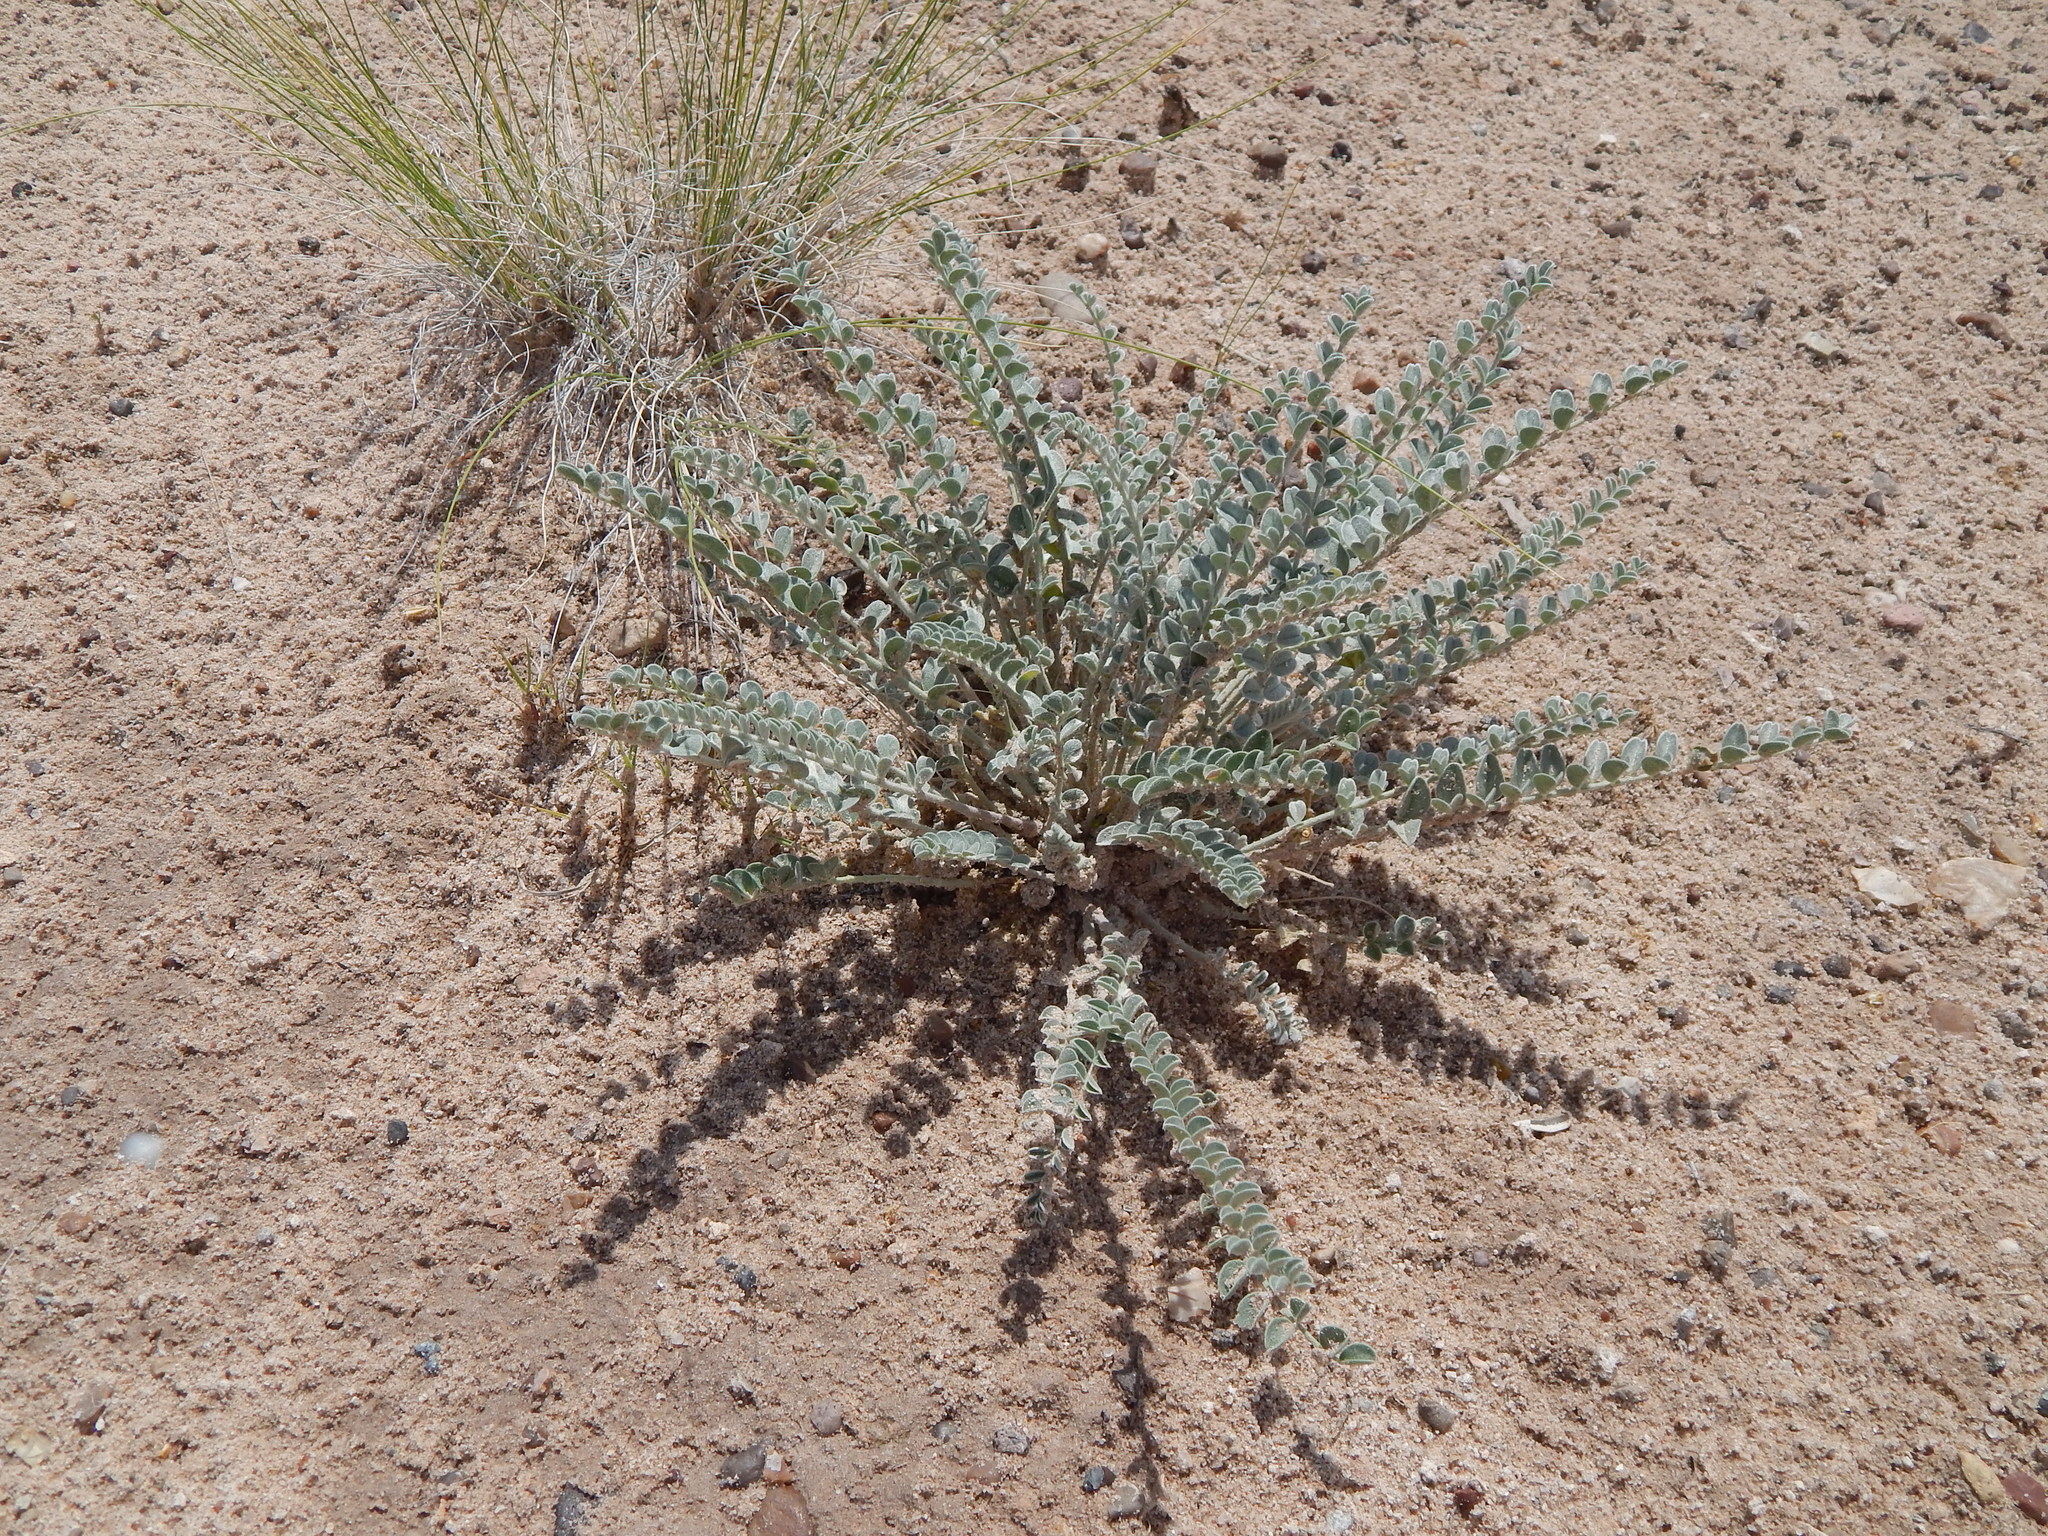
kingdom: Plantae
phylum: Tracheophyta
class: Magnoliopsida
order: Fabales
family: Fabaceae
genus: Astragalus
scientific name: Astragalus mollissimus
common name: Woolly locoweed
